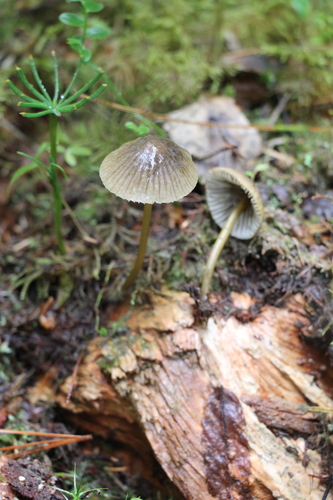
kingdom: Fungi
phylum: Basidiomycota
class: Agaricomycetes
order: Agaricales
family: Mycenaceae
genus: Mycena
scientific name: Mycena viridimarginata
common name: Olive edge bonnet
